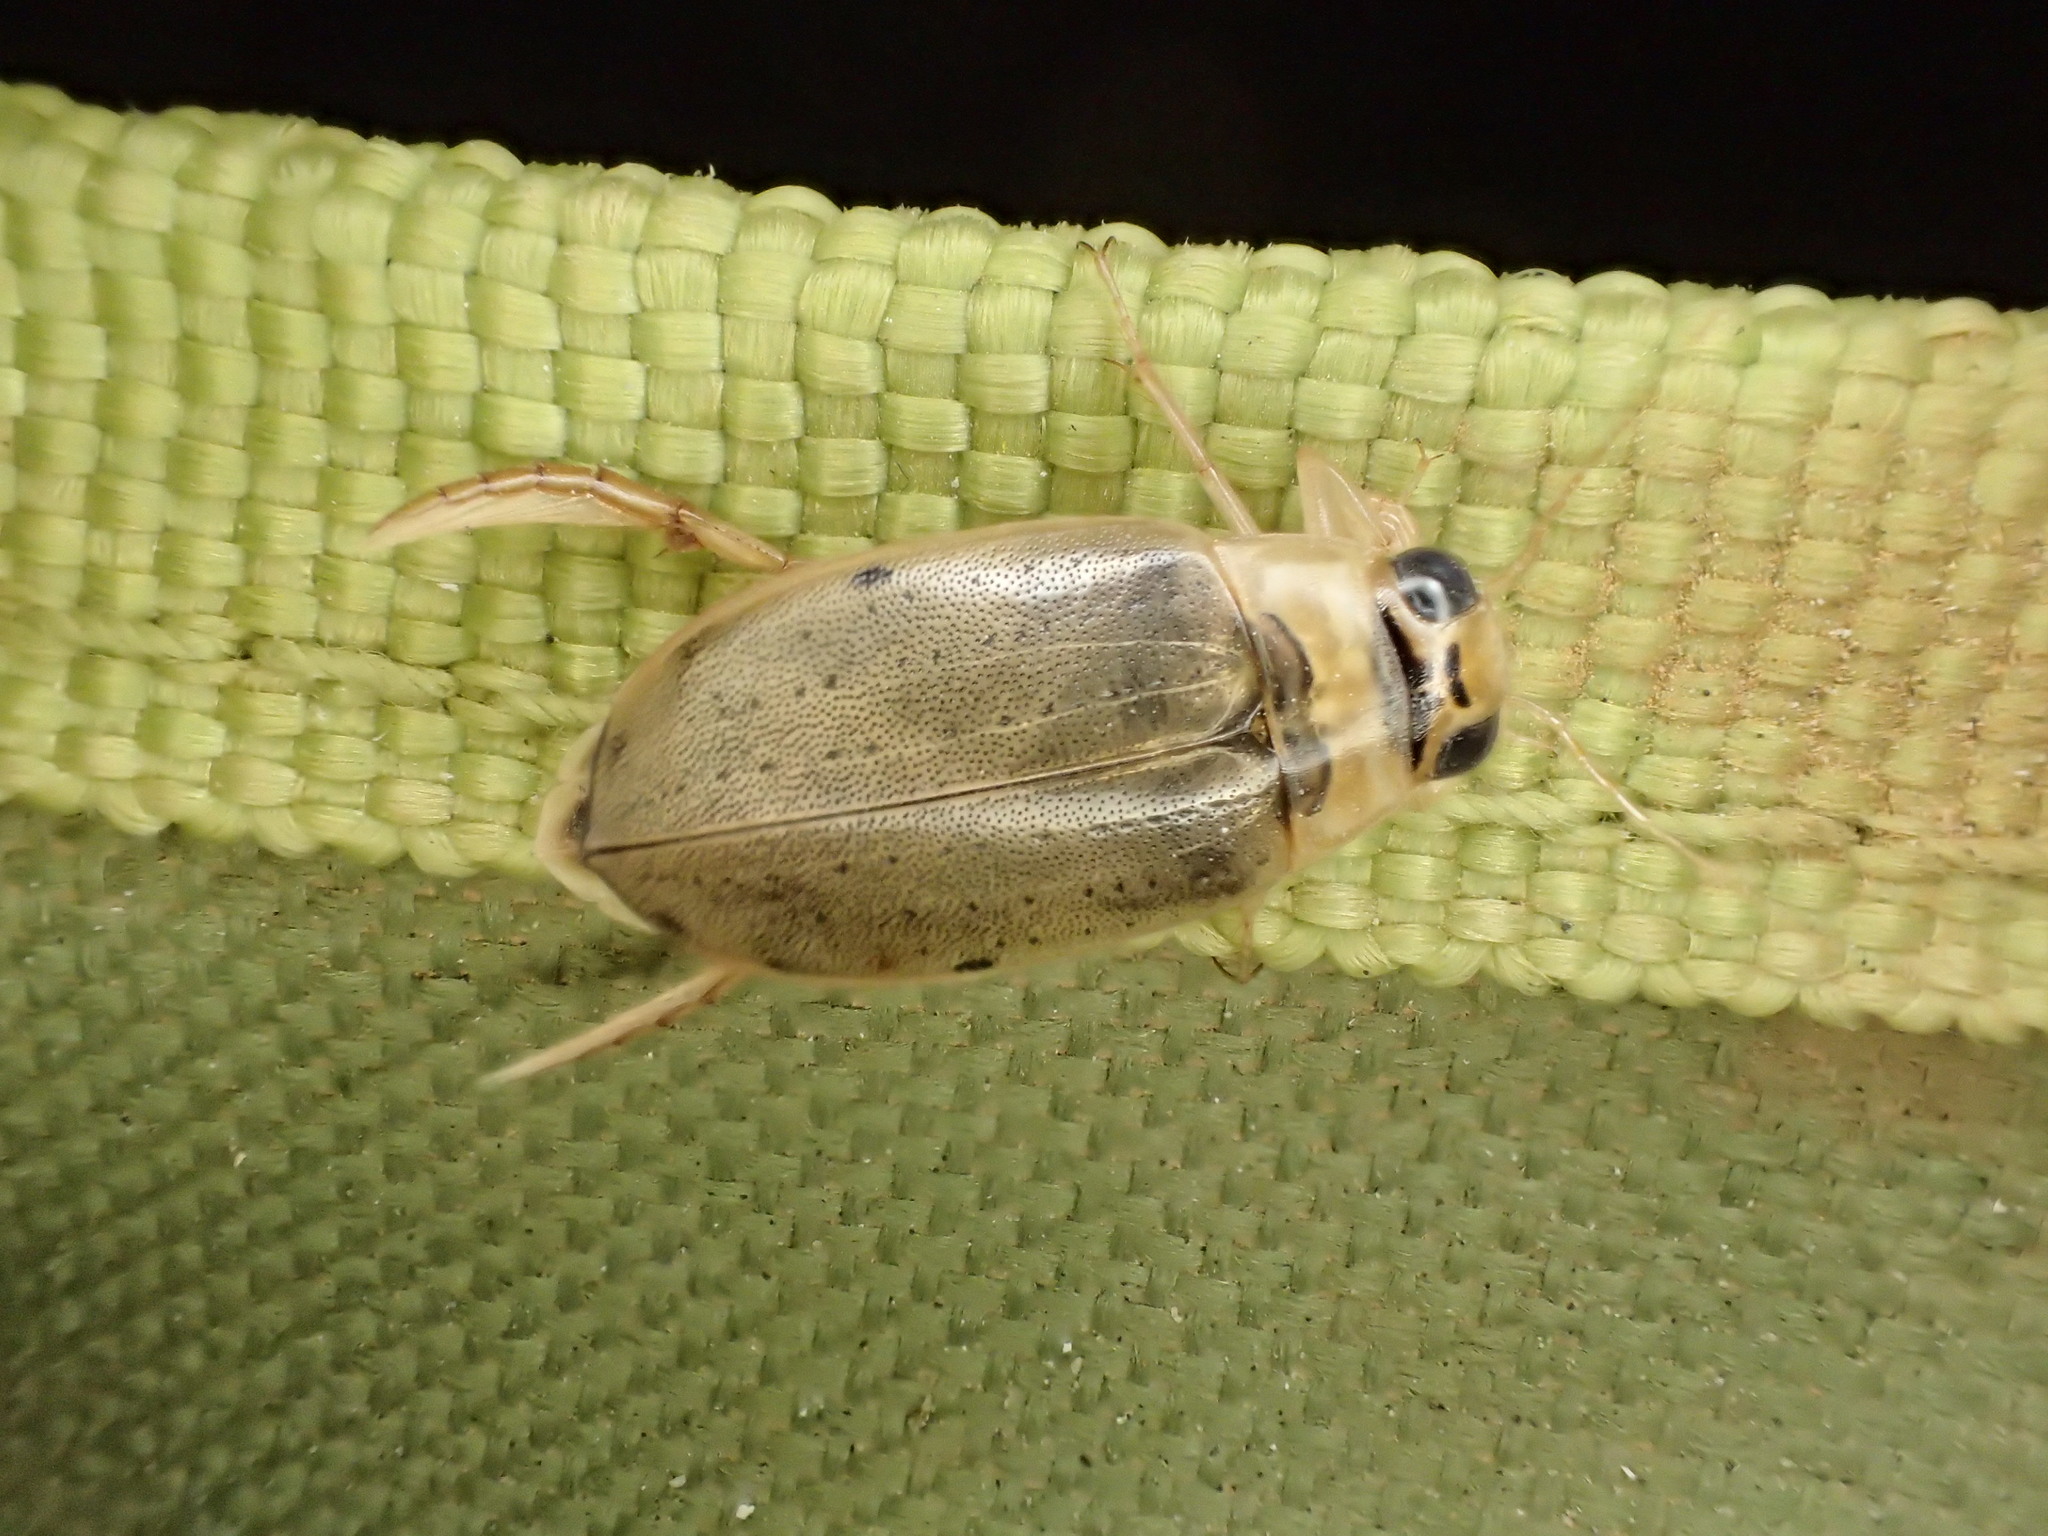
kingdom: Animalia
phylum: Arthropoda
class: Insecta
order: Coleoptera
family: Dytiscidae
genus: Eretes
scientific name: Eretes australis
